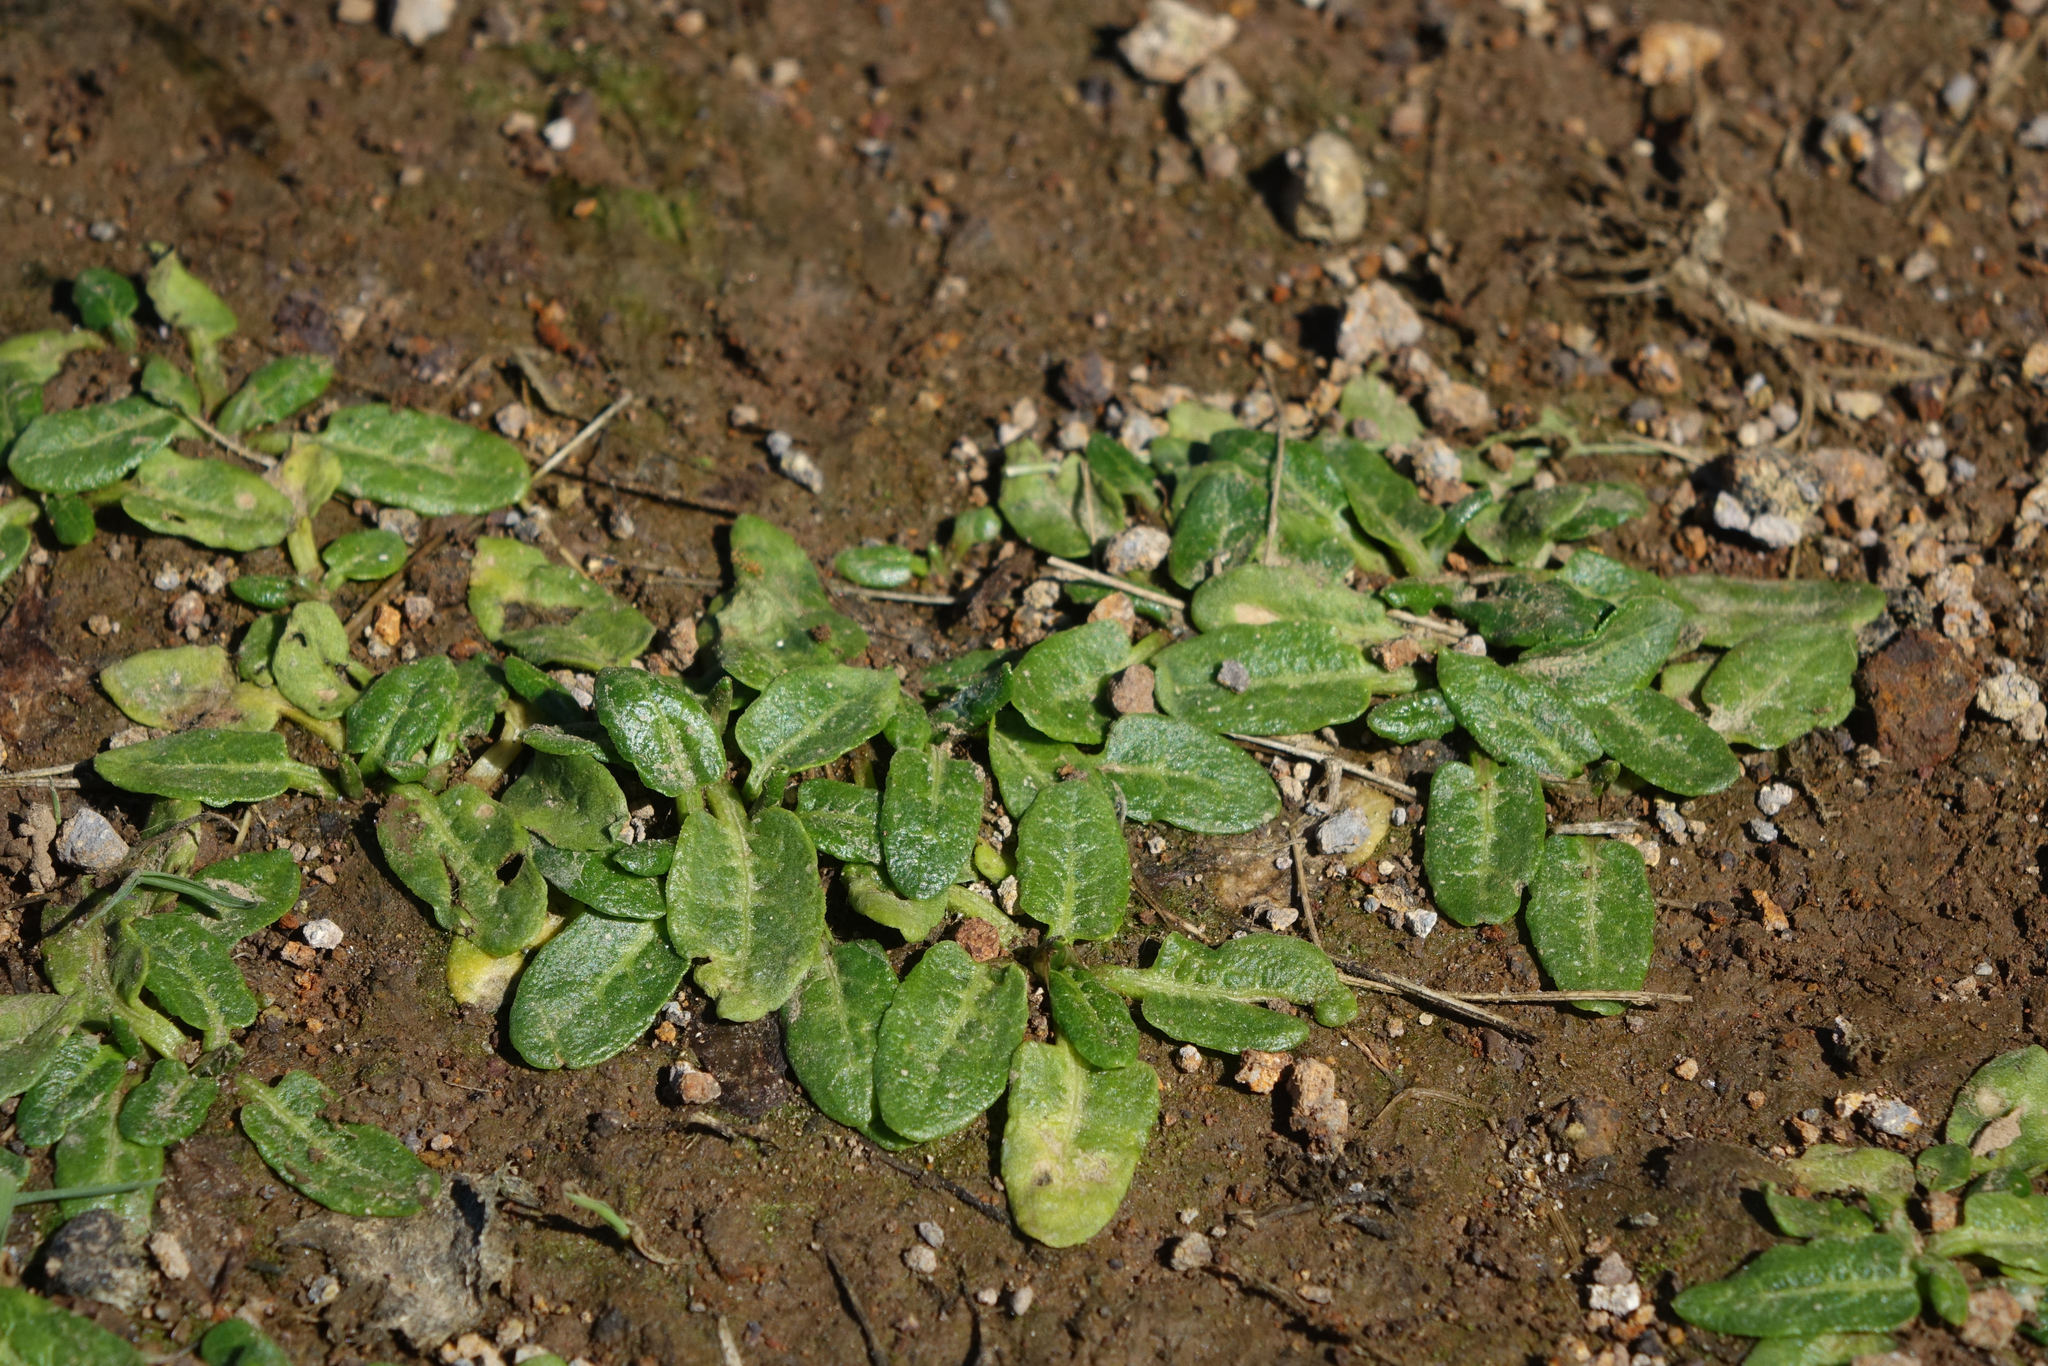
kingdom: Plantae
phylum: Tracheophyta
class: Magnoliopsida
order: Caryophyllales
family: Polygonaceae
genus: Rumex
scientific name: Rumex neglectus
